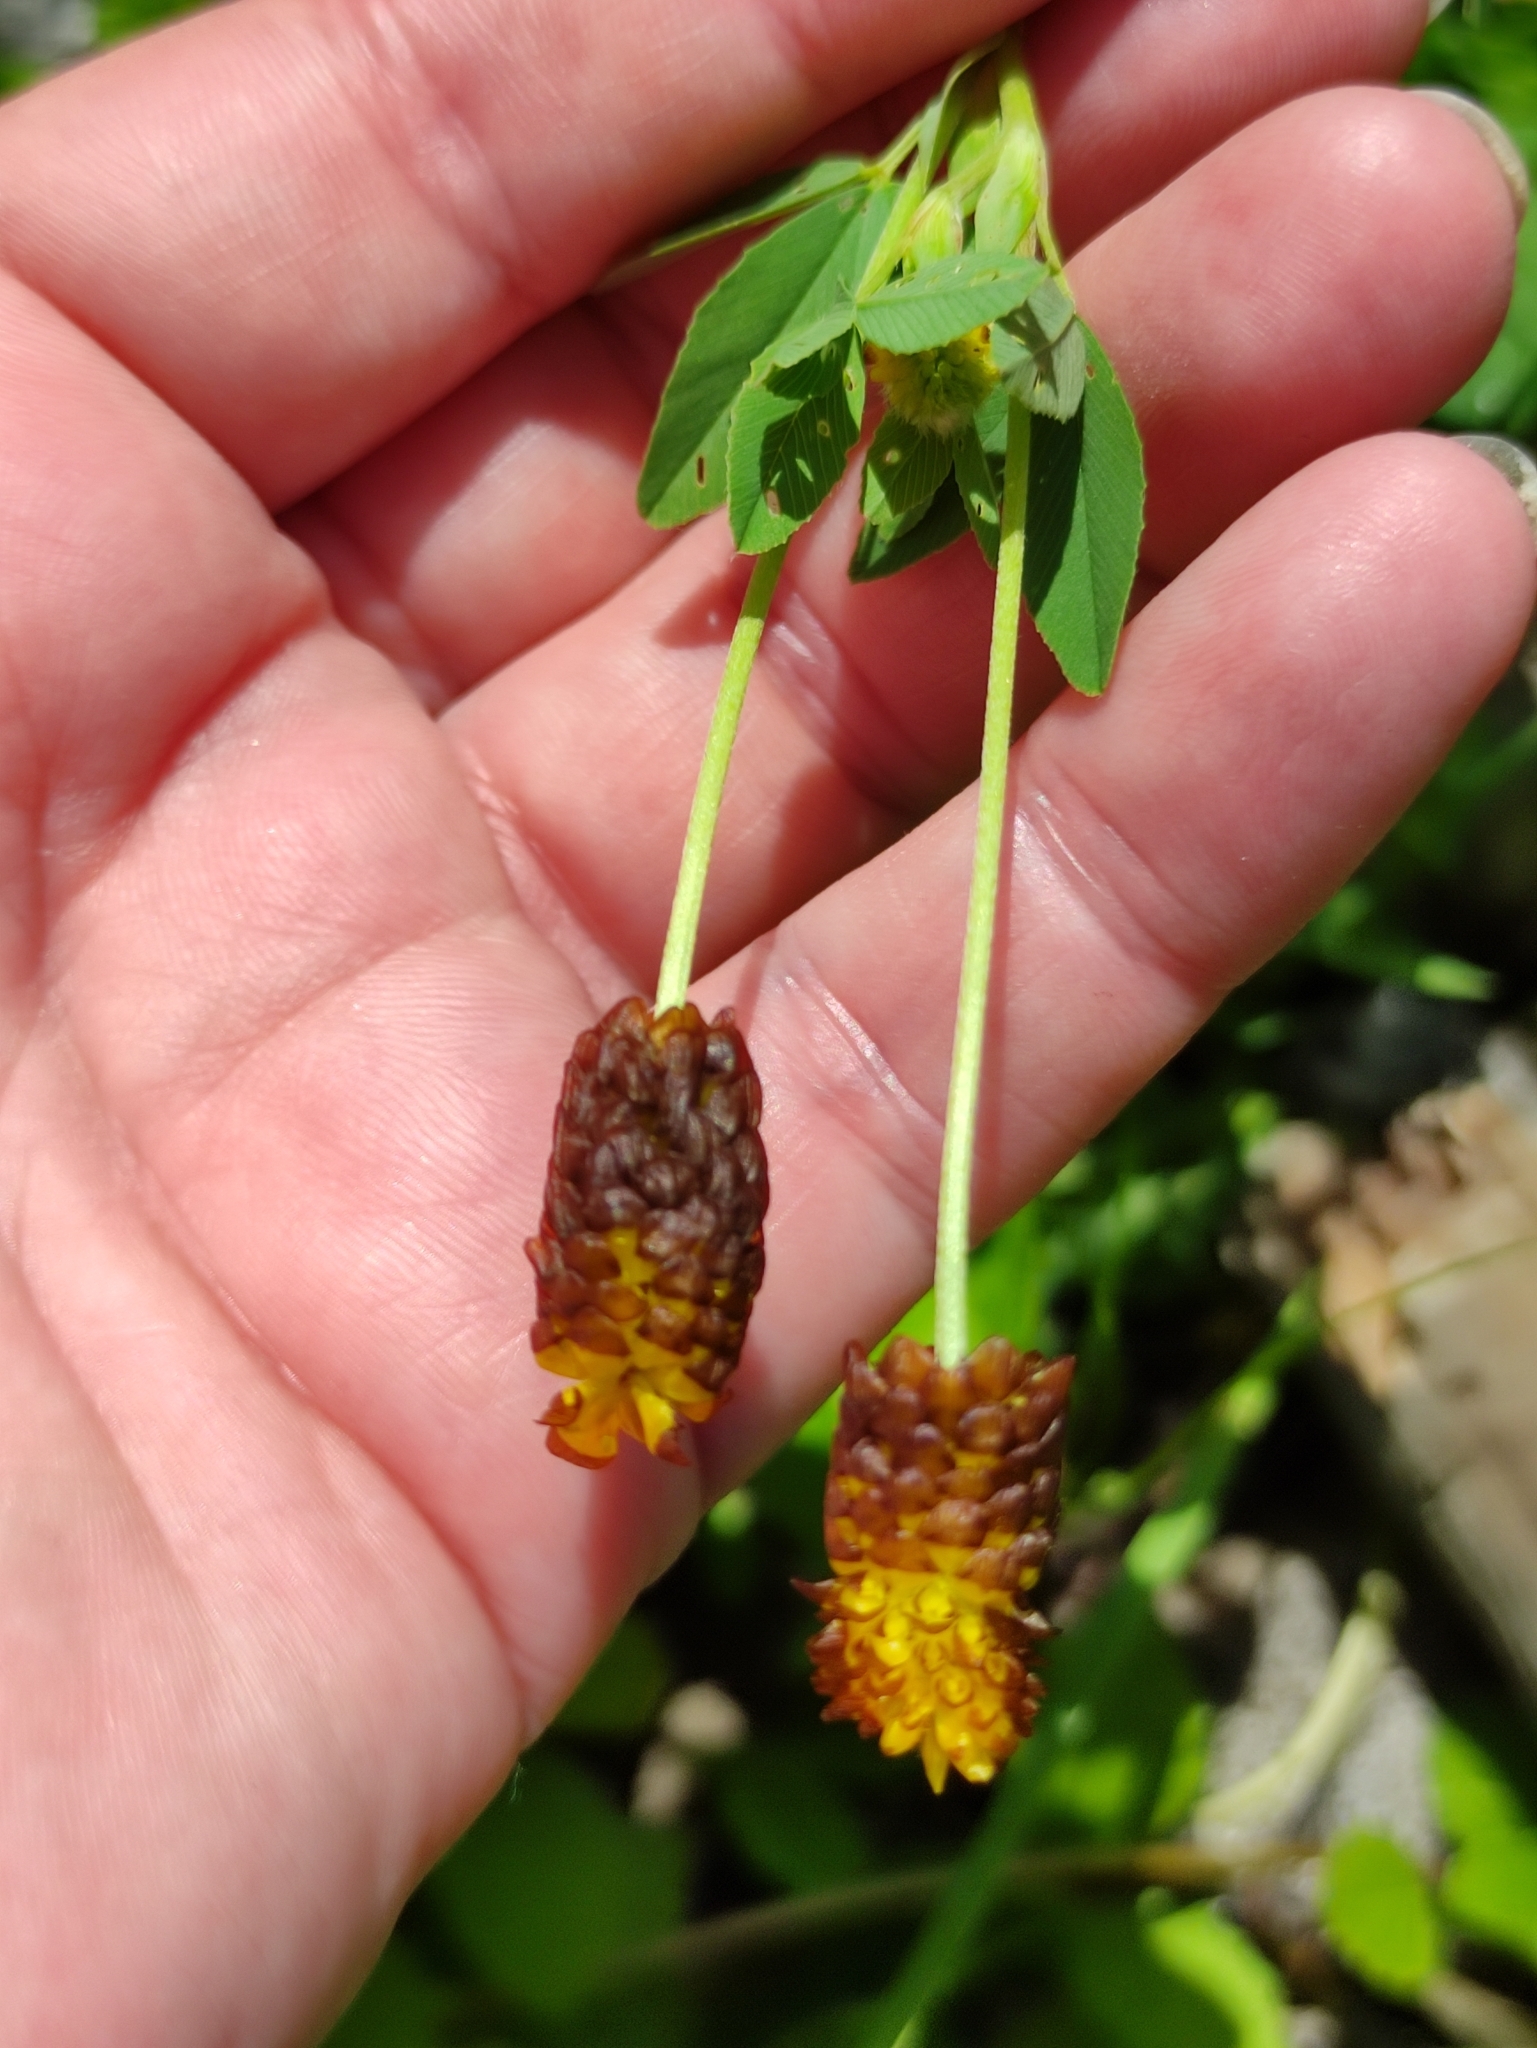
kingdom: Plantae
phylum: Tracheophyta
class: Magnoliopsida
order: Fabales
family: Fabaceae
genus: Trifolium
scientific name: Trifolium spadiceum
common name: Brown moor clover
